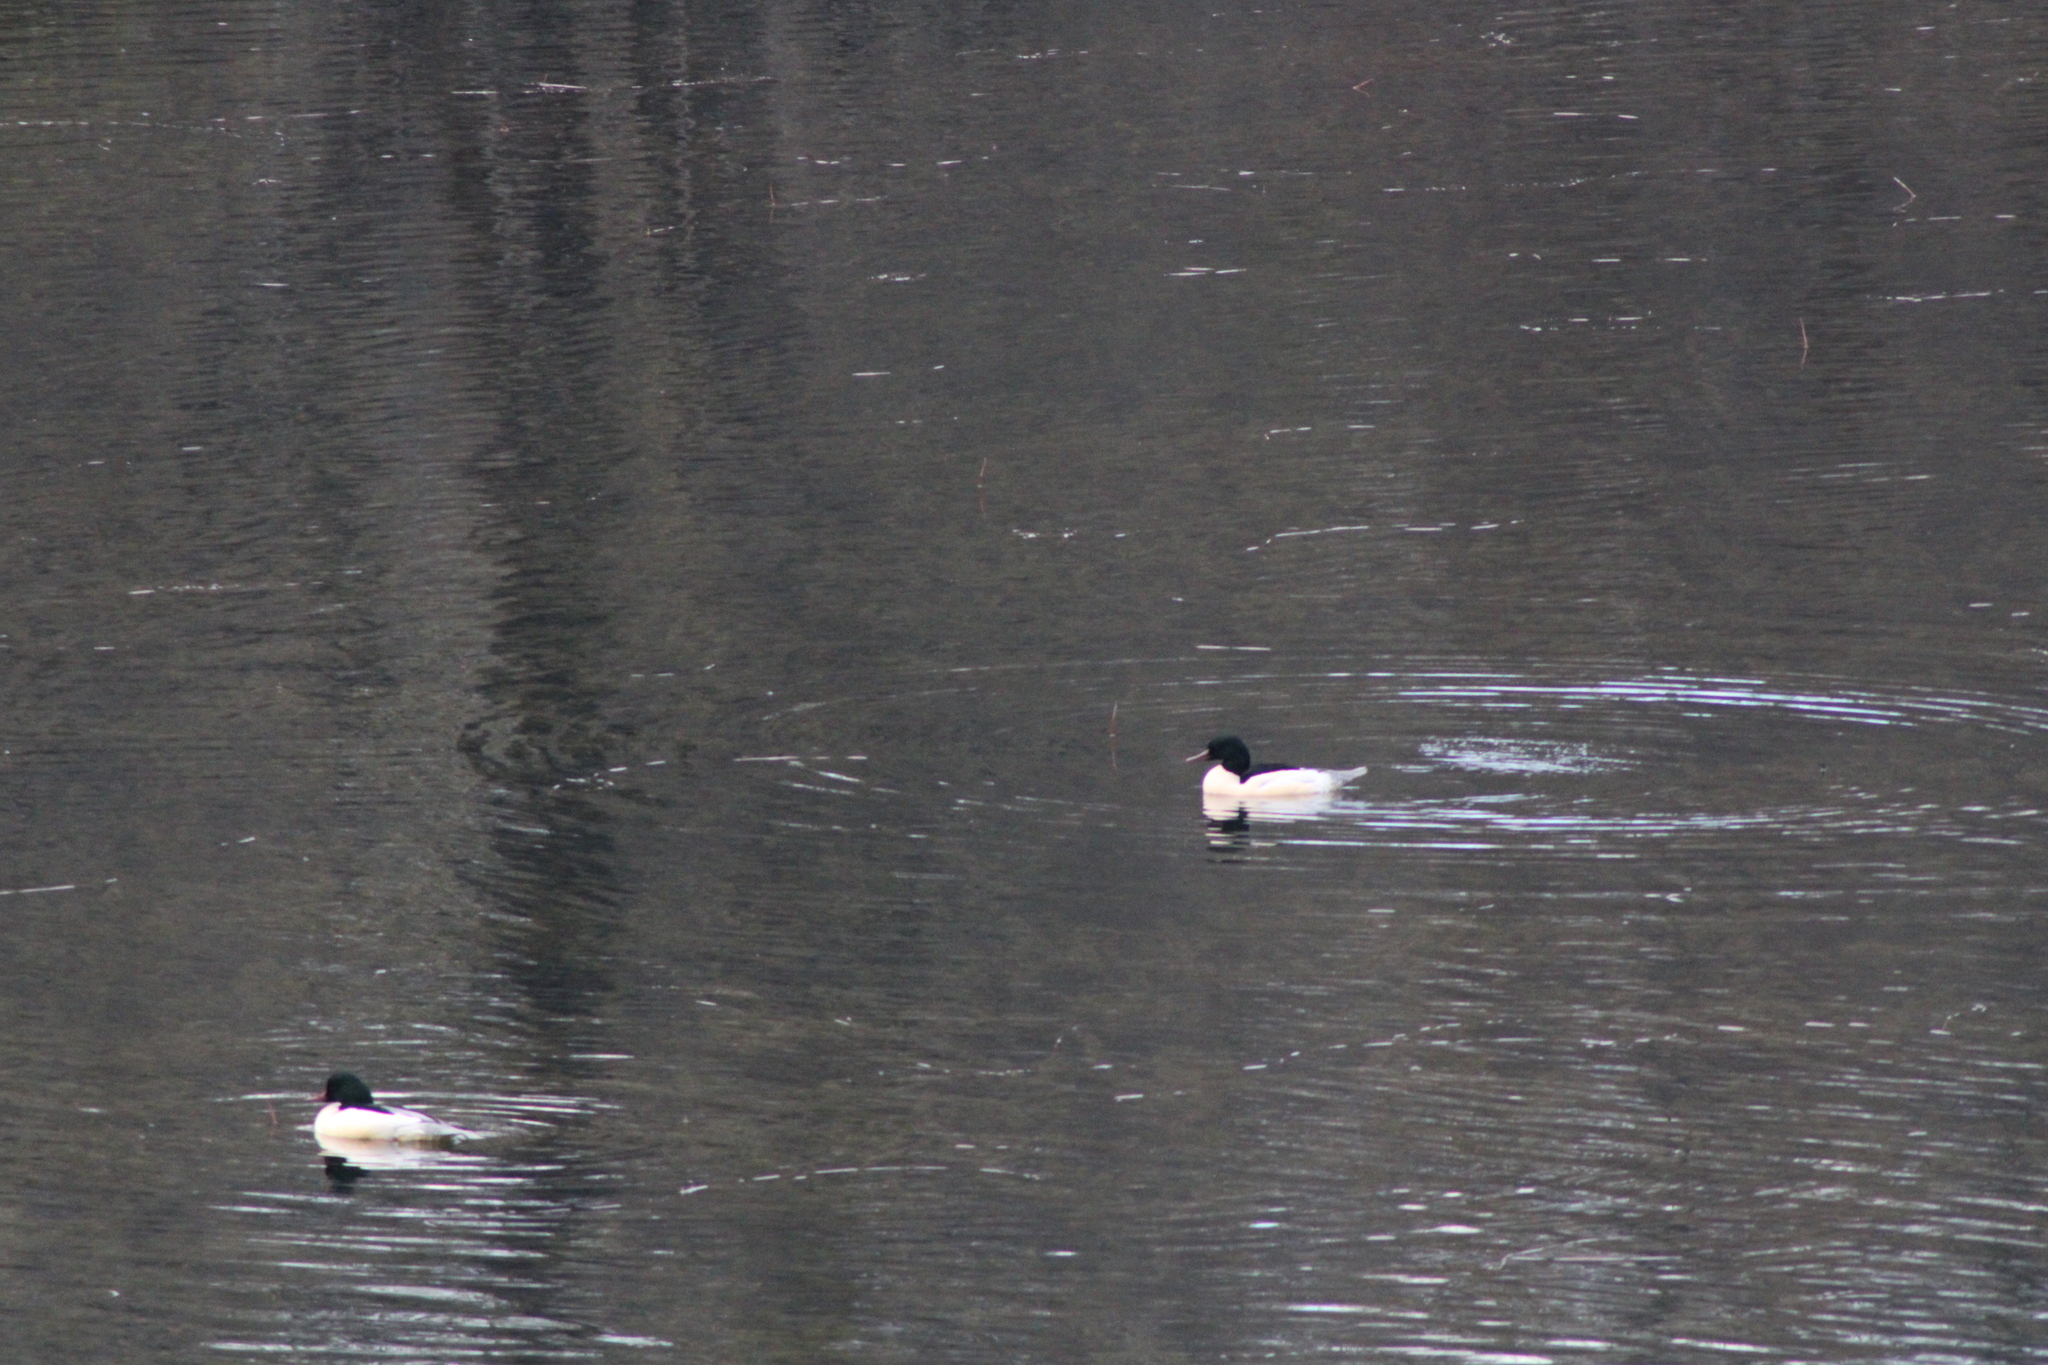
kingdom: Animalia
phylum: Chordata
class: Aves
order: Anseriformes
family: Anatidae
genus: Mergus
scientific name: Mergus merganser
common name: Common merganser
